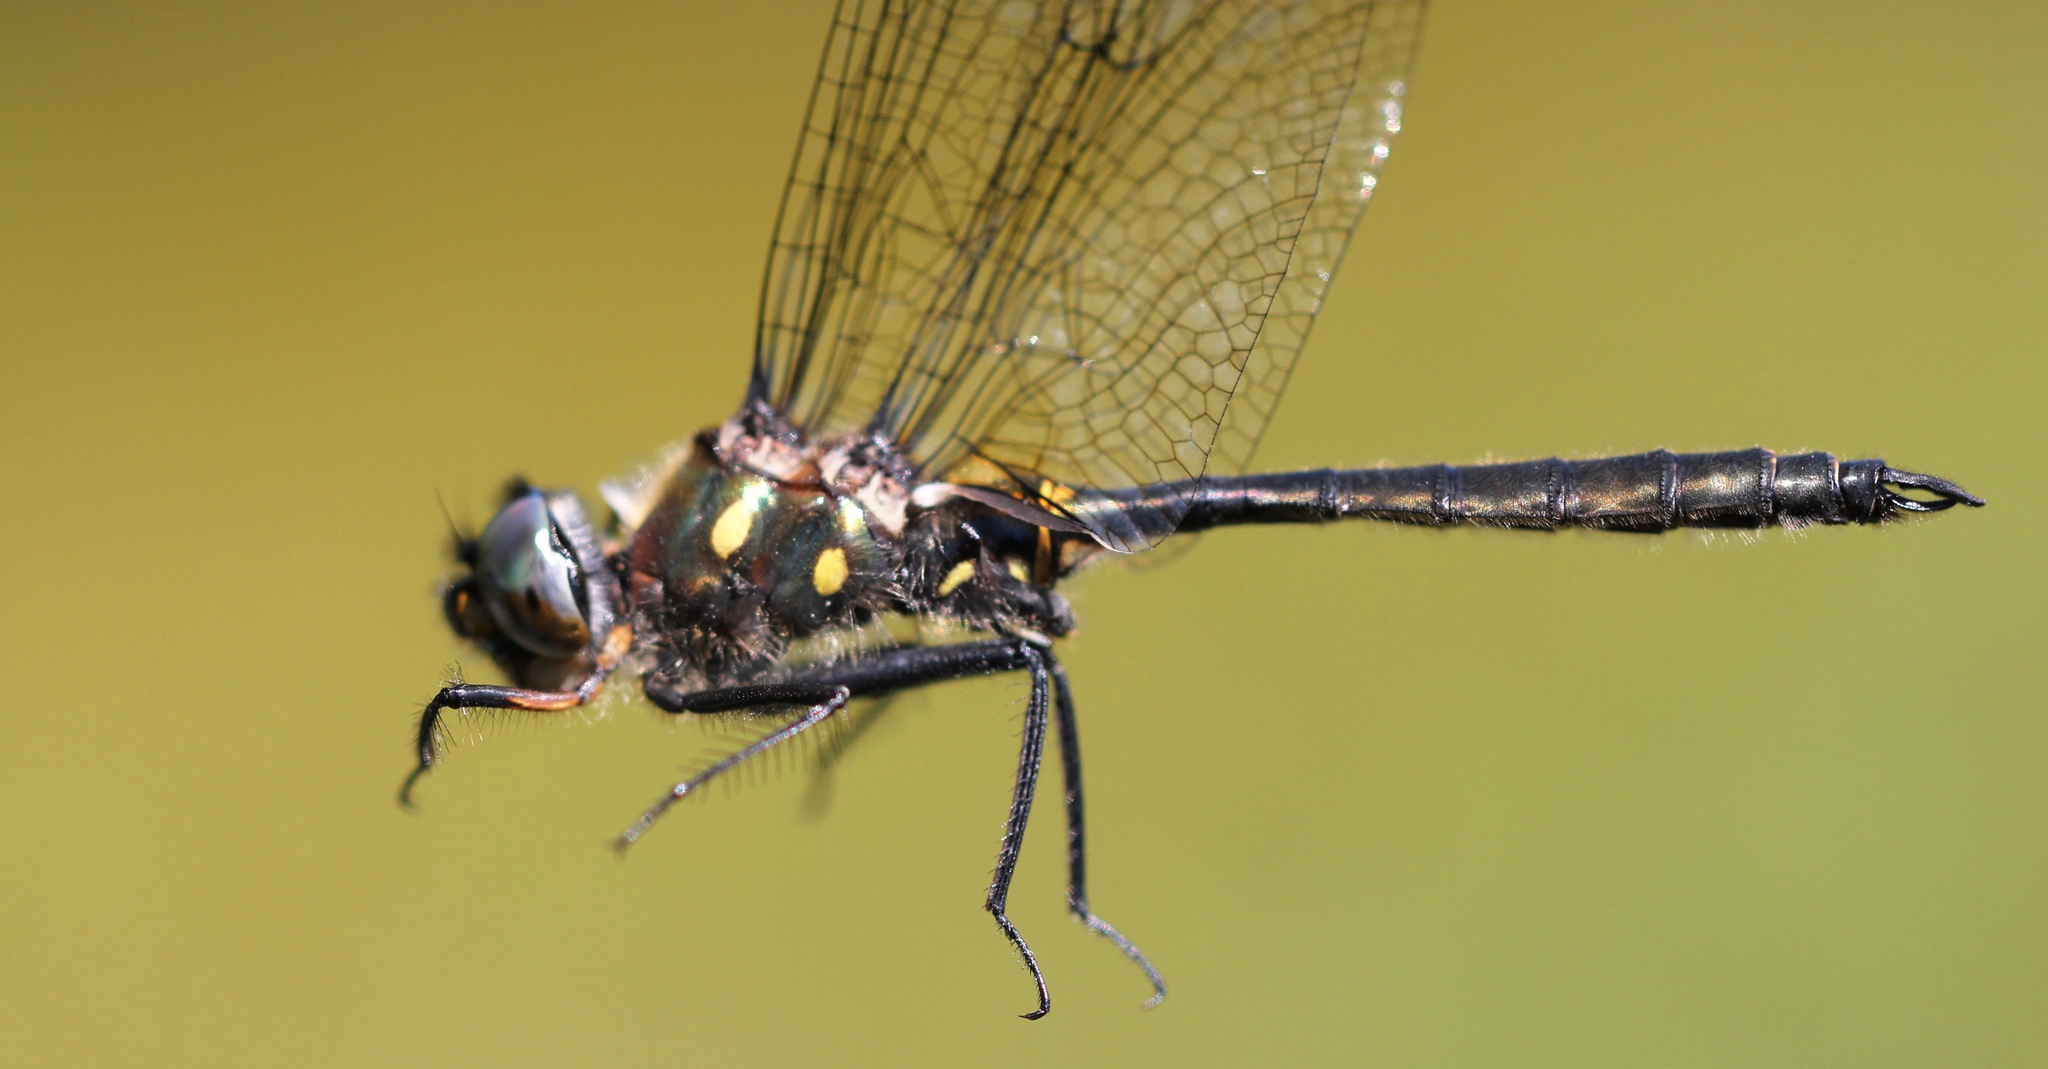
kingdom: Animalia
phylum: Arthropoda
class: Insecta
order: Odonata
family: Corduliidae
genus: Somatochlora
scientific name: Somatochlora minor
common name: Ocellated emerald
